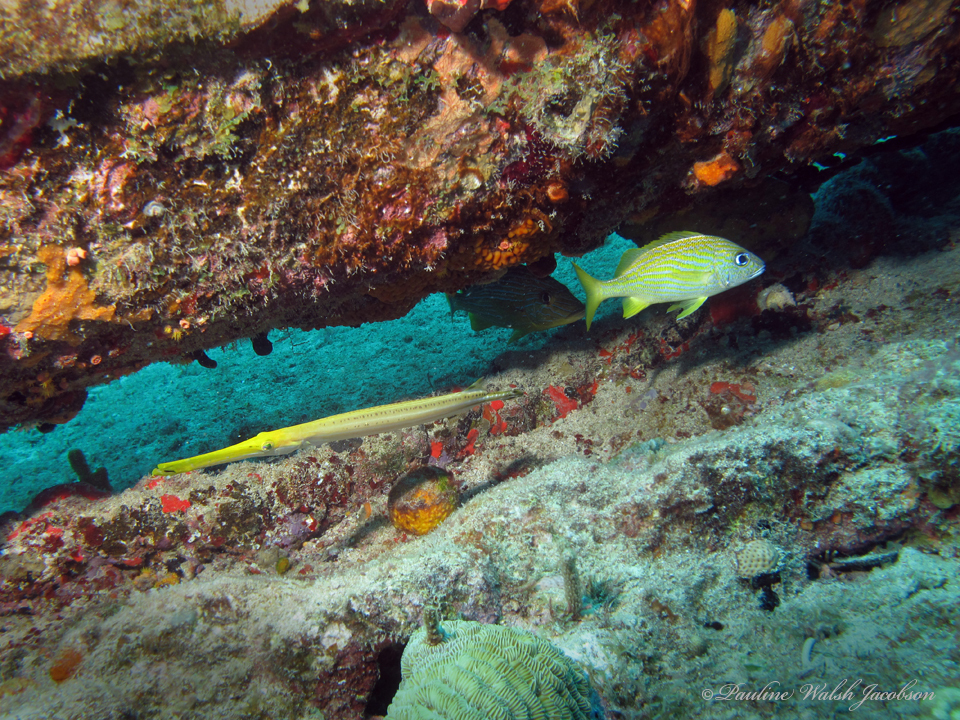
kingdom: Animalia
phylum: Chordata
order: Perciformes
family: Haemulidae
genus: Haemulon
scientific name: Haemulon flavolineatum
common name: French grunt
